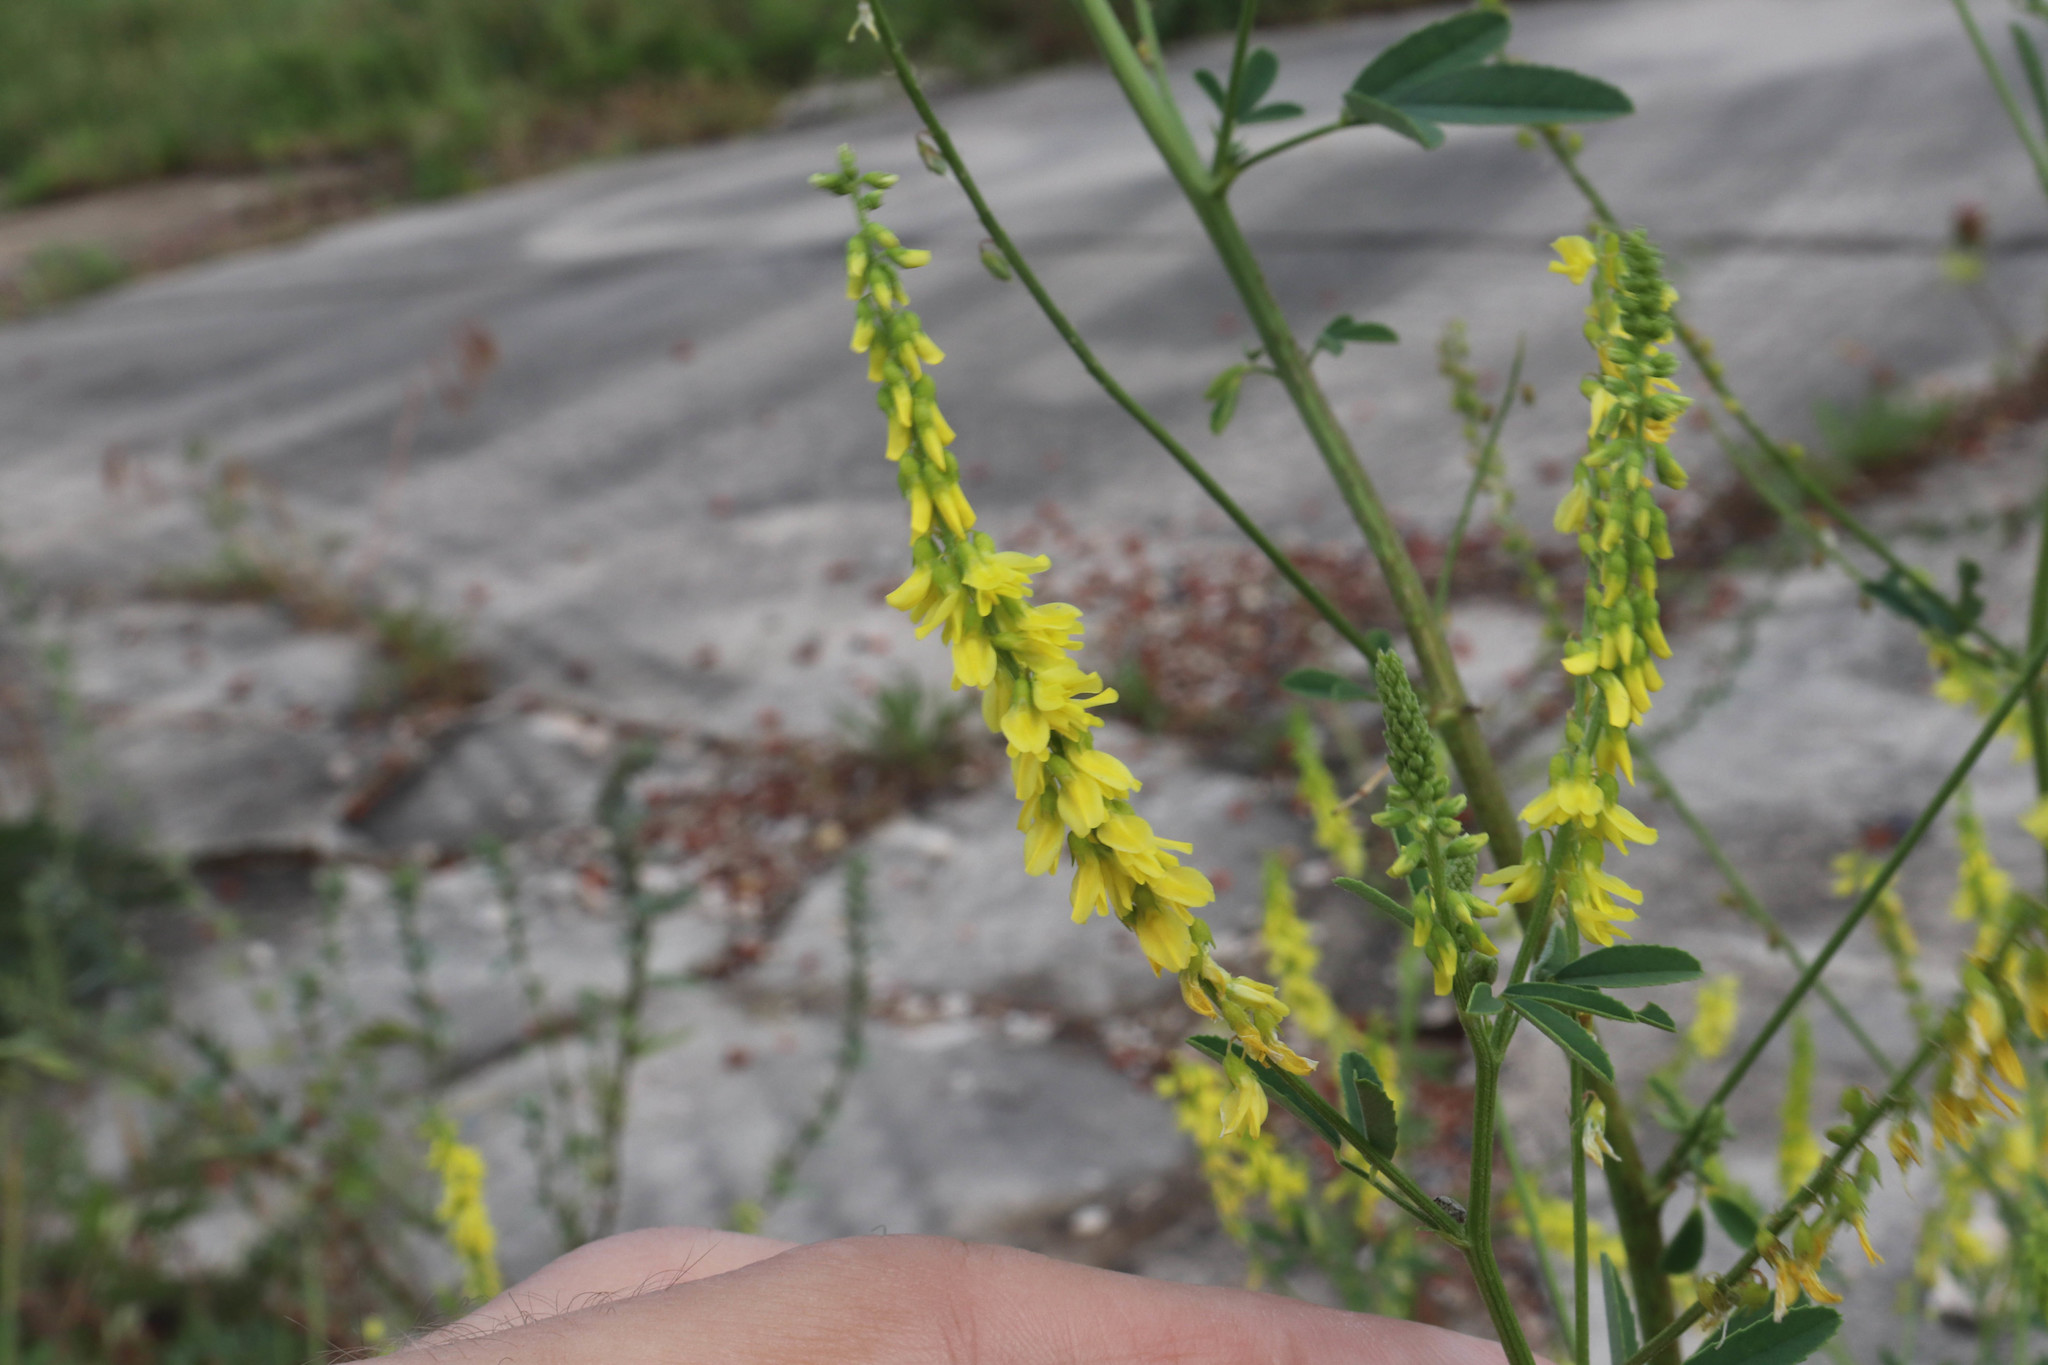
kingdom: Plantae
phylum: Tracheophyta
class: Magnoliopsida
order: Fabales
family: Fabaceae
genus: Melilotus
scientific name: Melilotus officinalis
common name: Sweetclover
